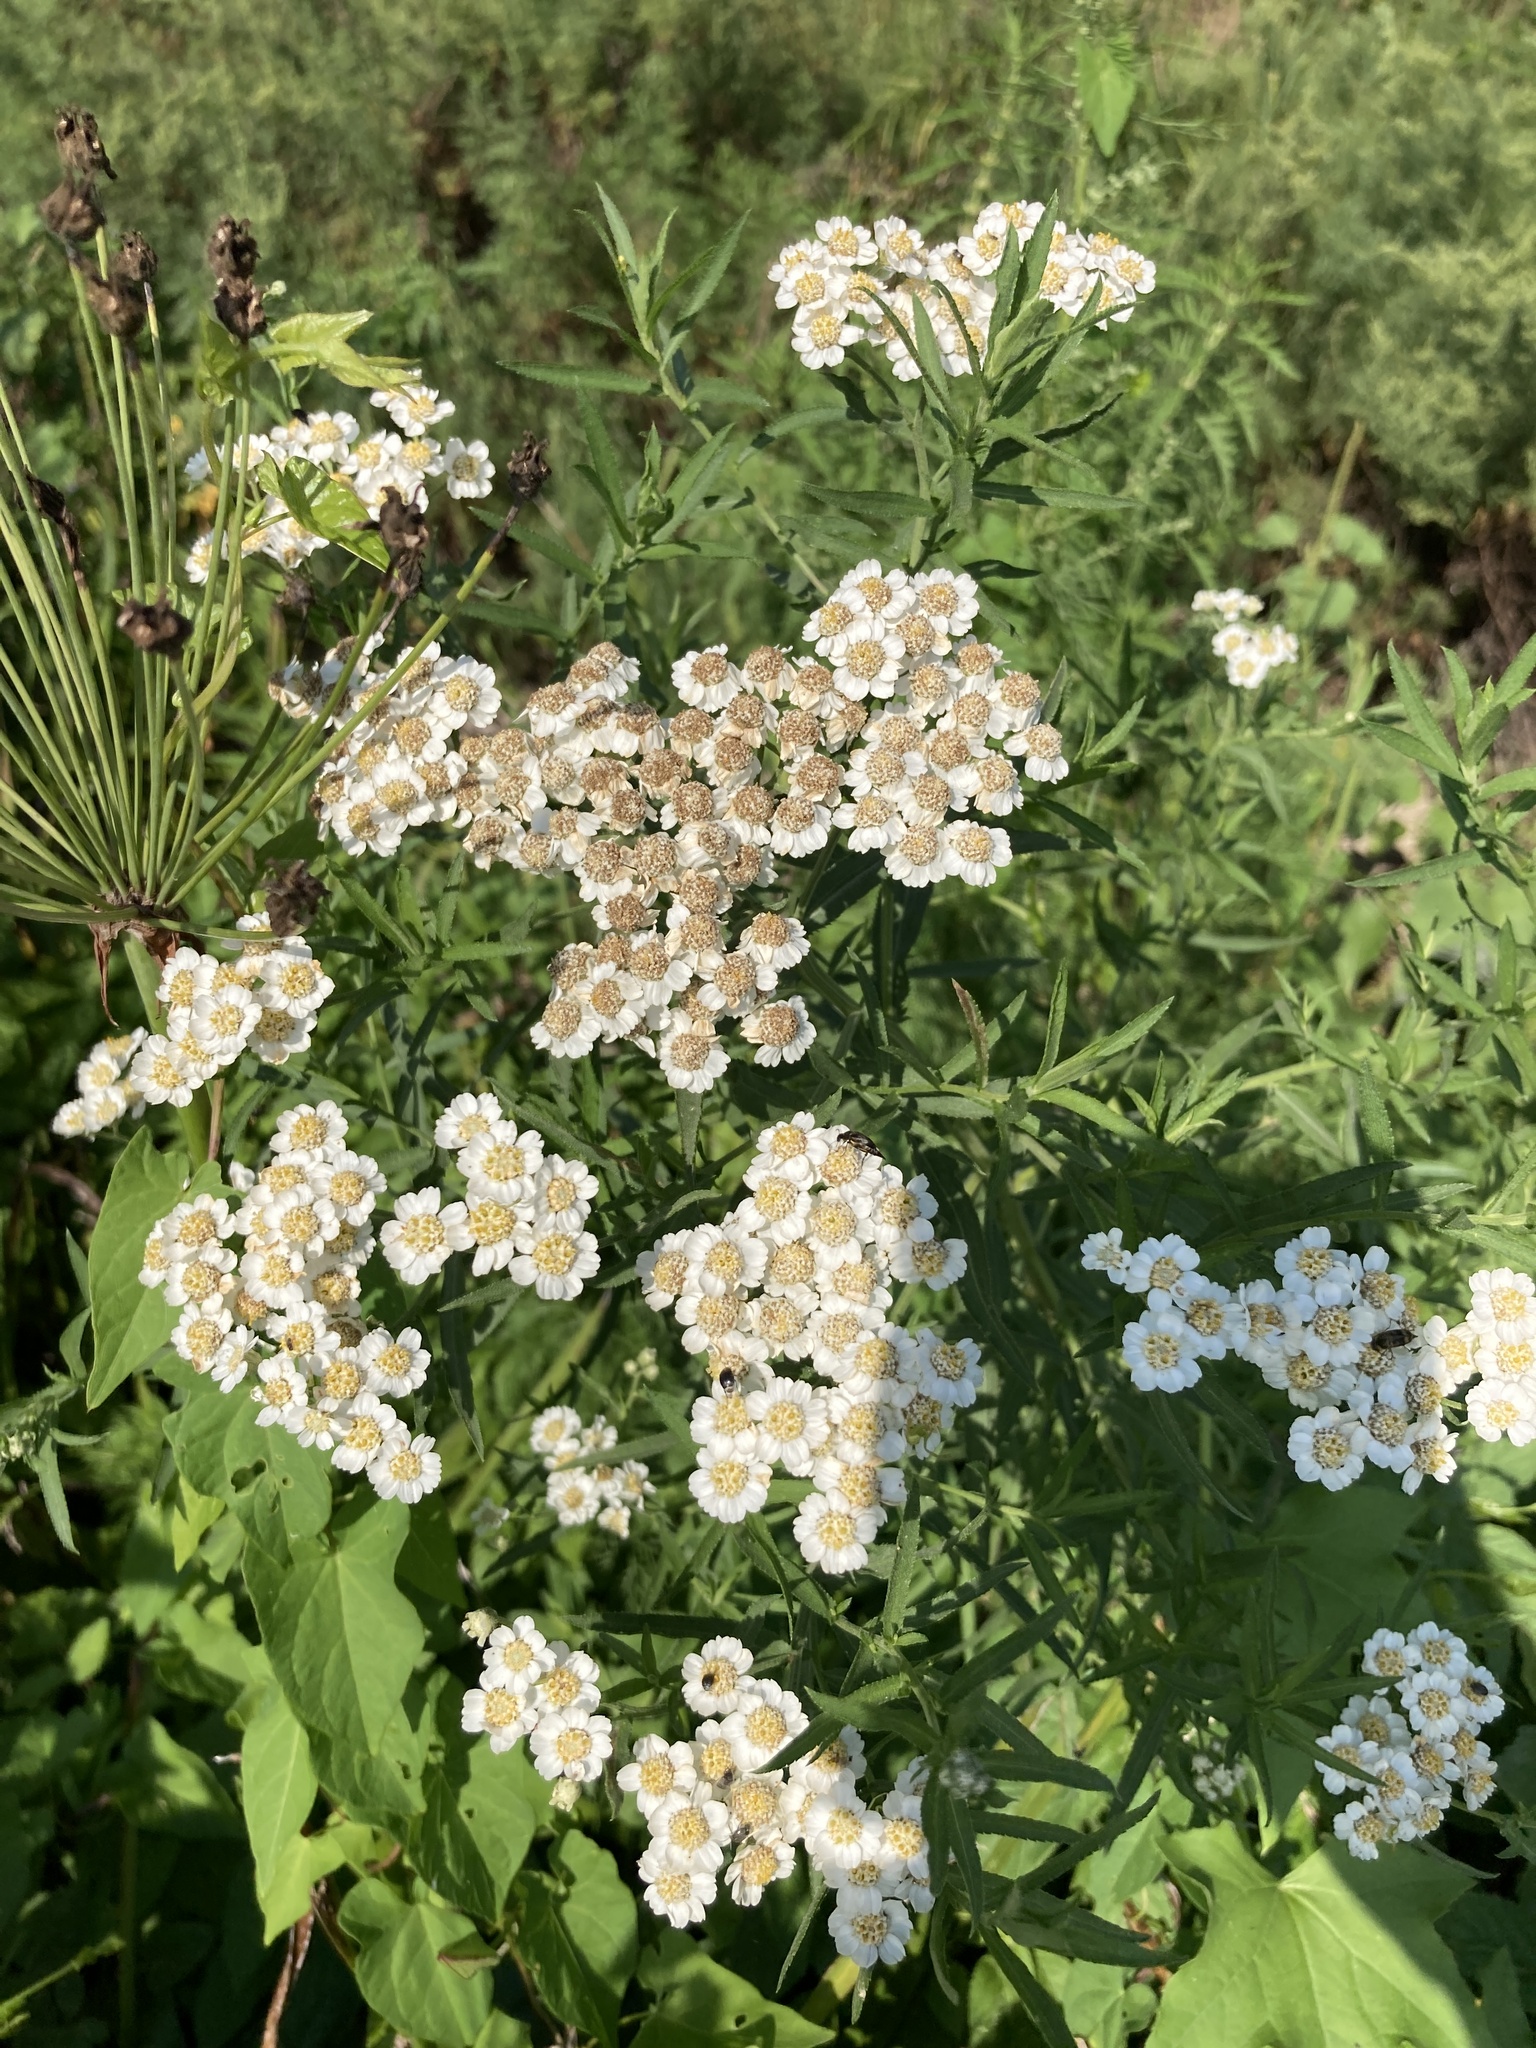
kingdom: Plantae
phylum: Tracheophyta
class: Magnoliopsida
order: Asterales
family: Asteraceae
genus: Achillea
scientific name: Achillea salicifolia
